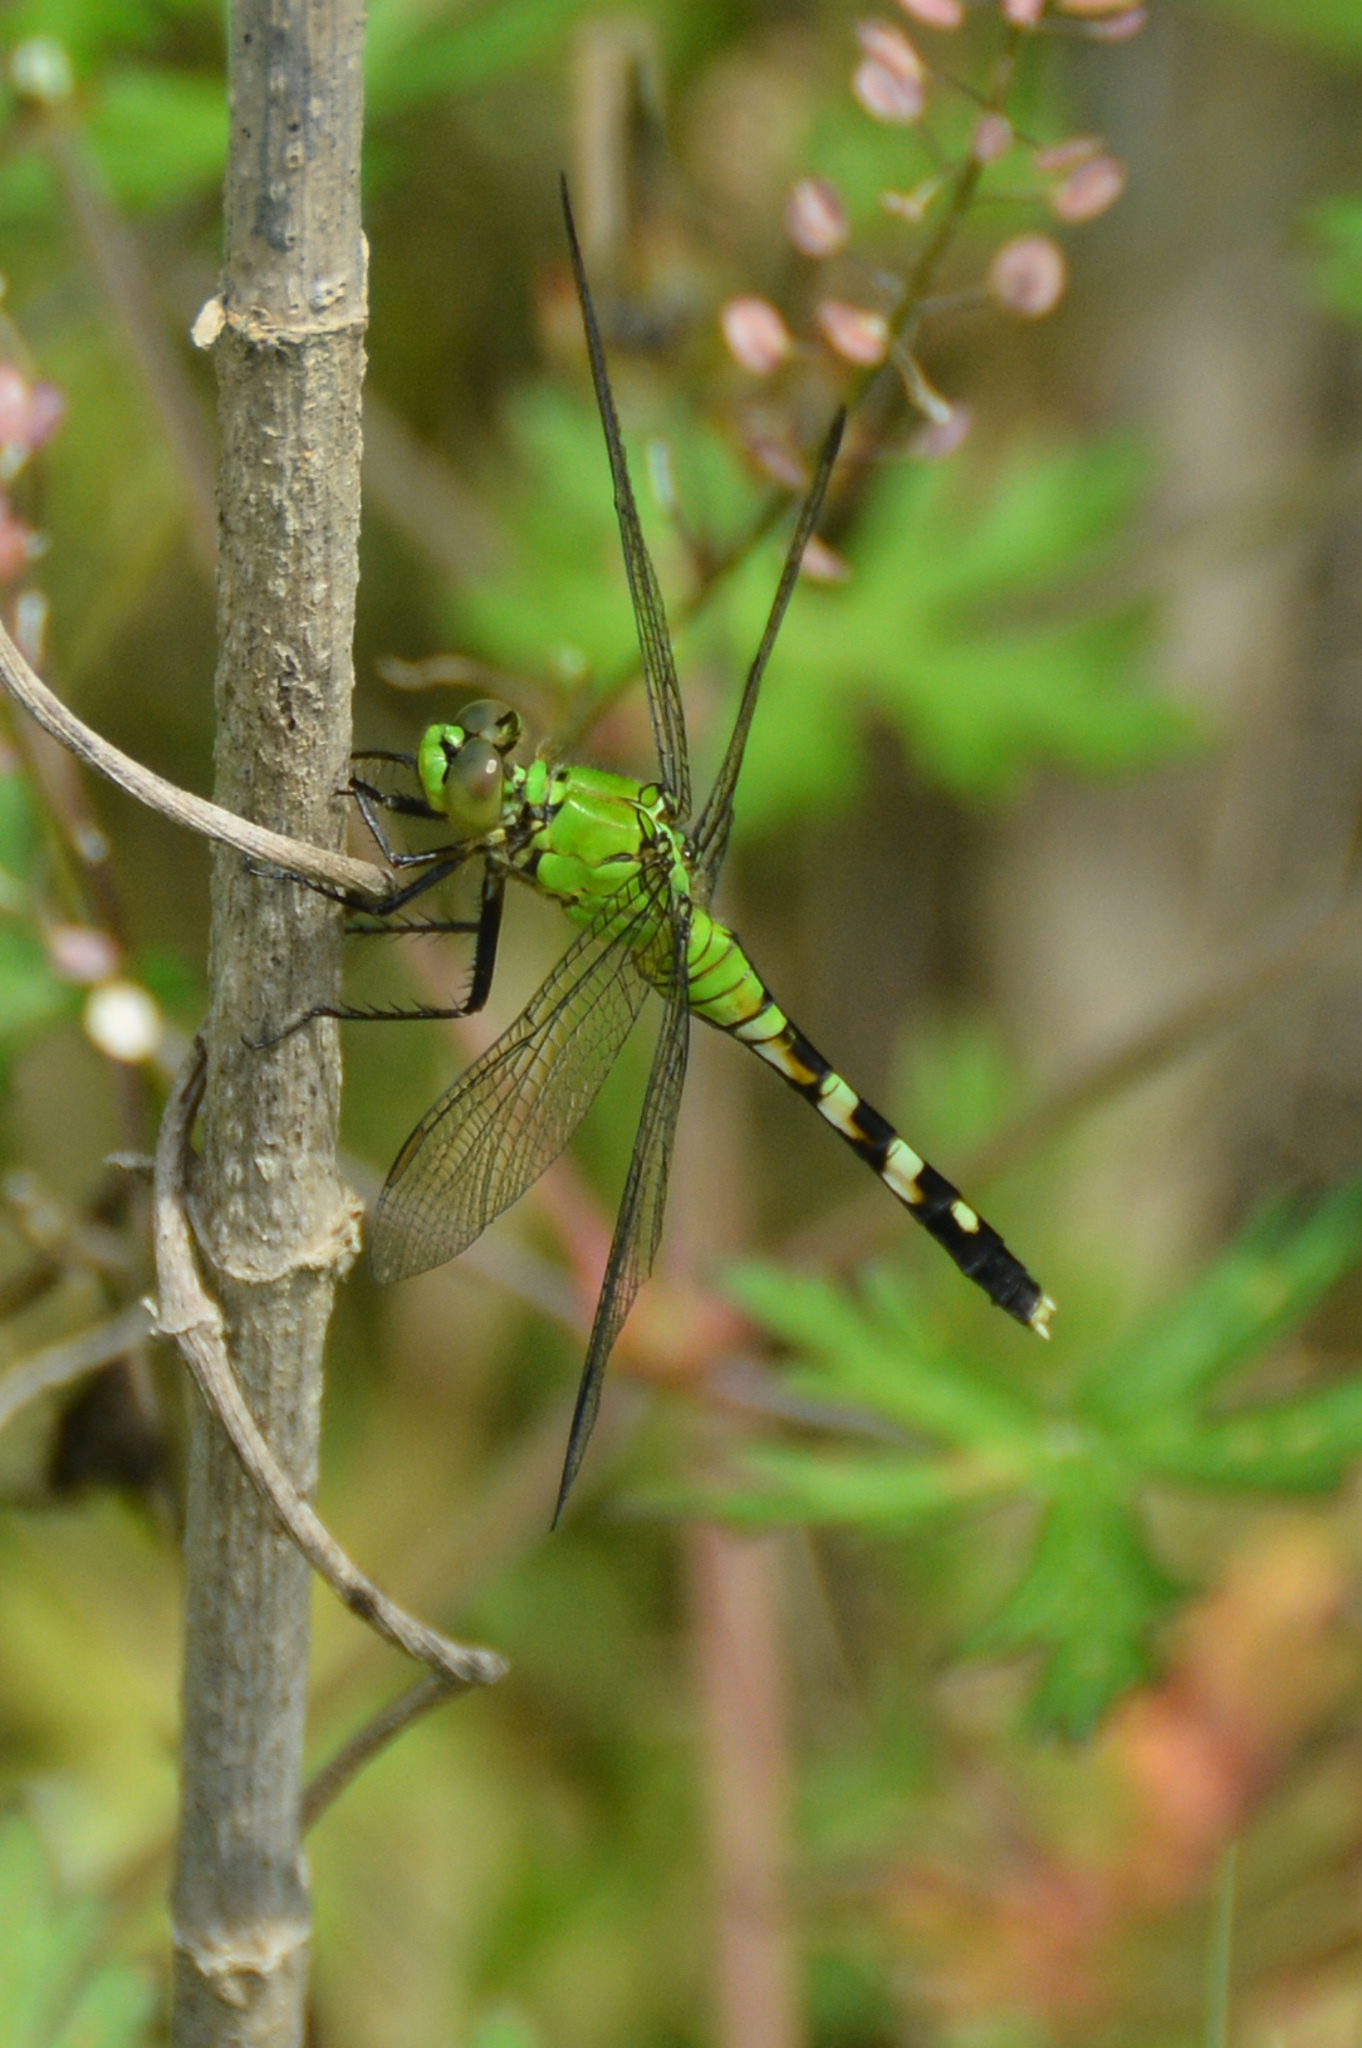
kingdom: Animalia
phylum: Arthropoda
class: Insecta
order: Odonata
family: Libellulidae
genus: Erythemis
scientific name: Erythemis simplicicollis
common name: Eastern pondhawk
